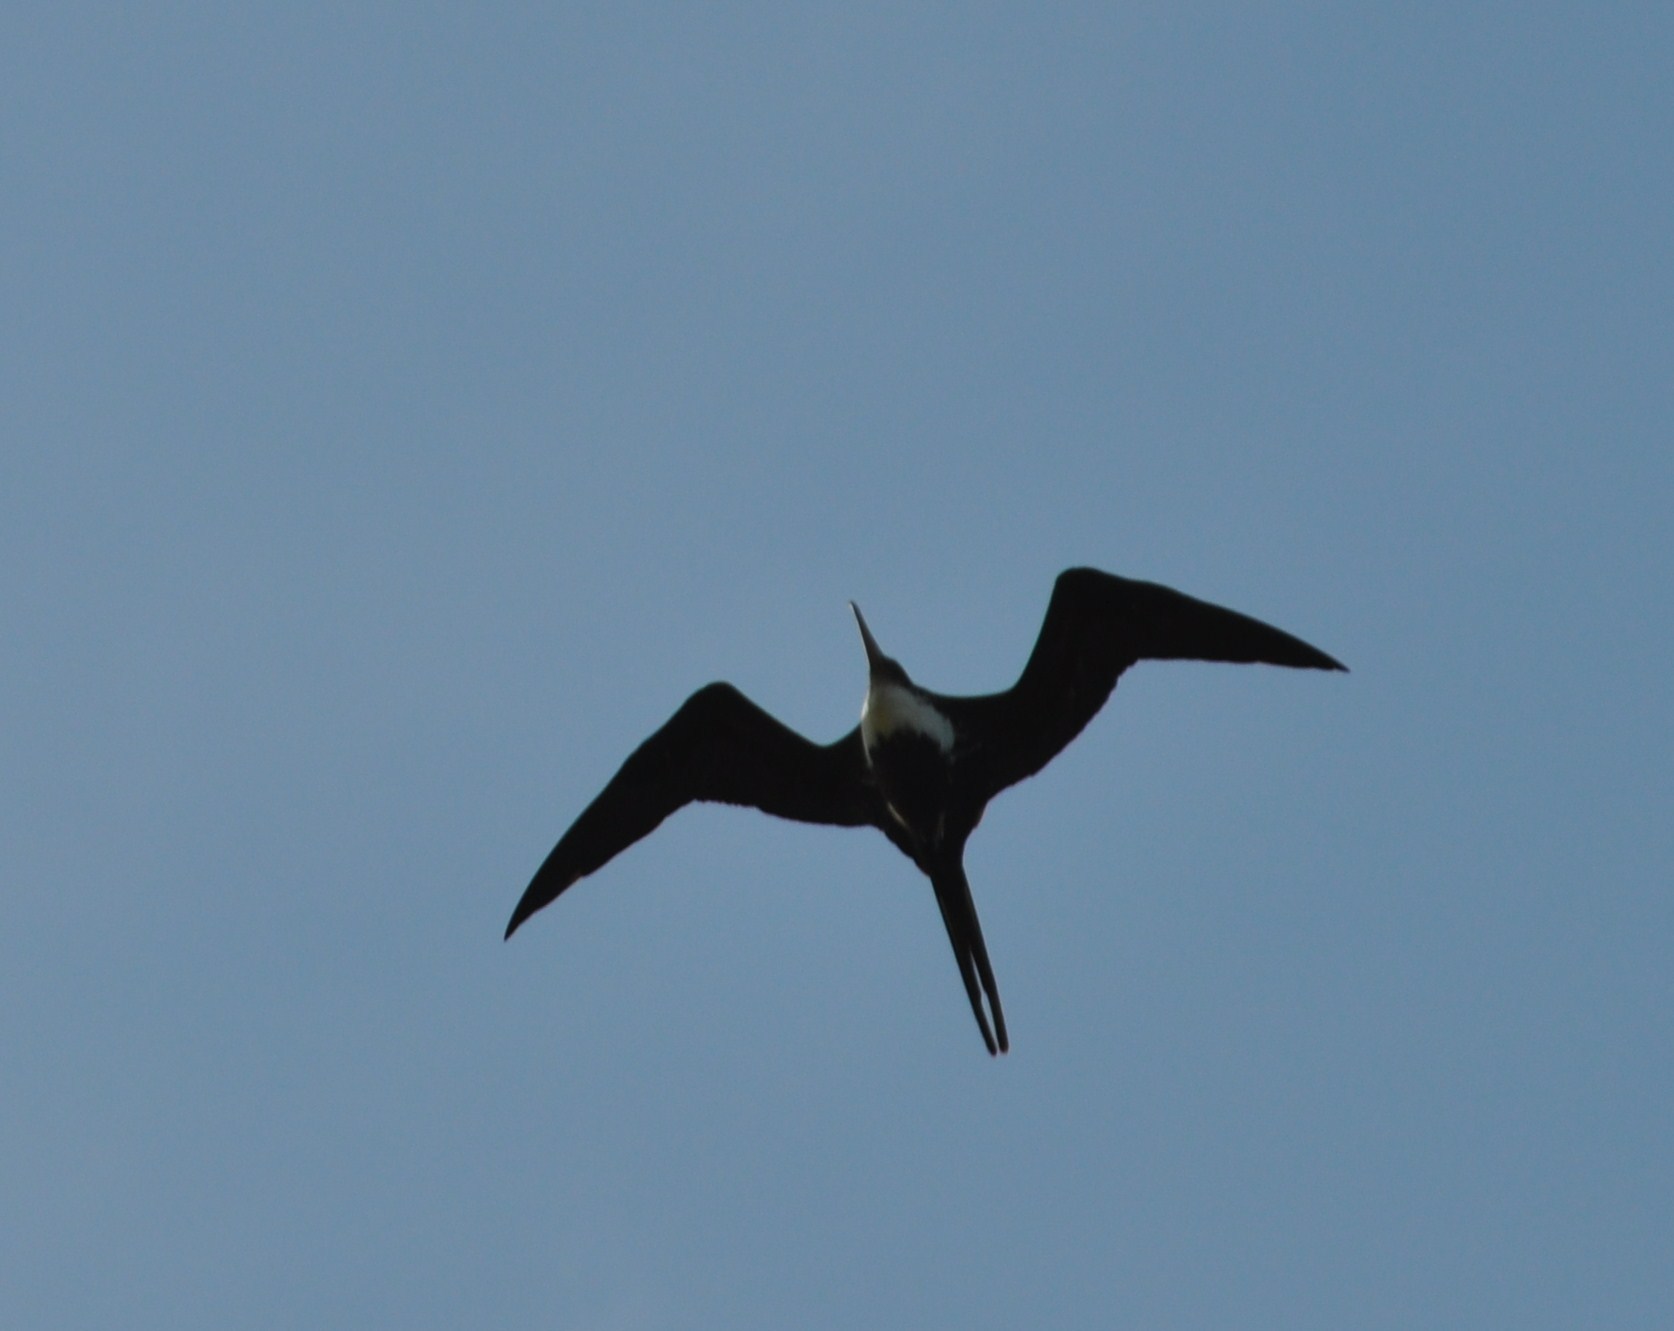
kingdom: Animalia
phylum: Chordata
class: Aves
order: Suliformes
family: Fregatidae
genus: Fregata
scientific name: Fregata minor
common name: Great frigatebird
